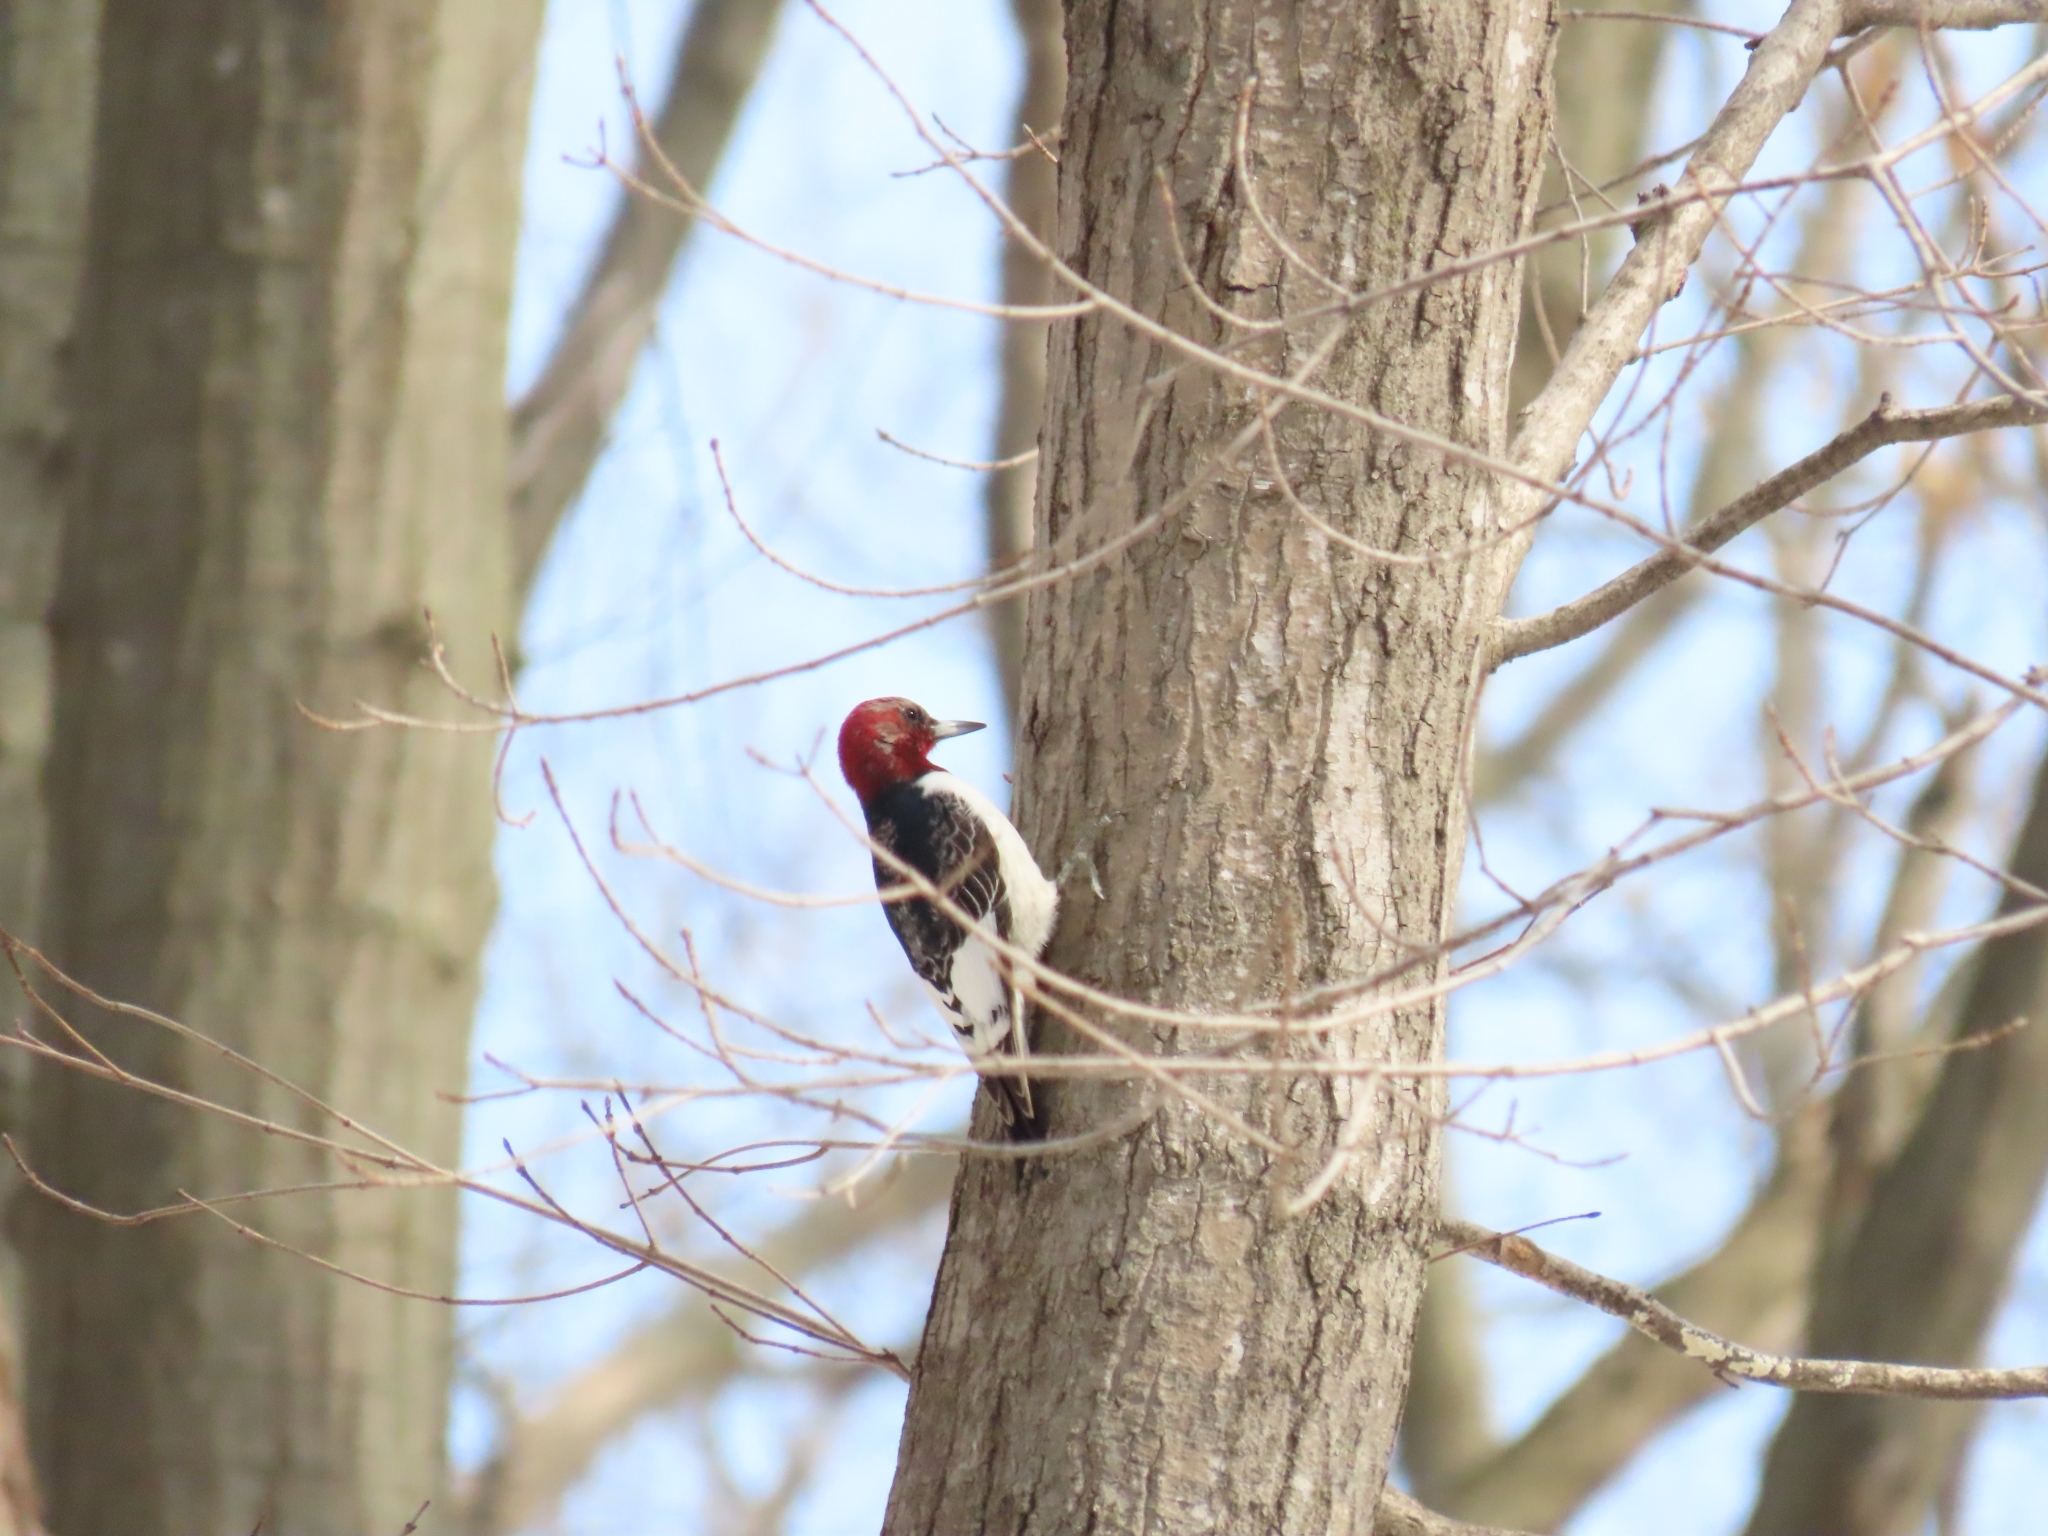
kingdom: Animalia
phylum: Chordata
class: Aves
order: Piciformes
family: Picidae
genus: Melanerpes
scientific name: Melanerpes erythrocephalus
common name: Red-headed woodpecker
